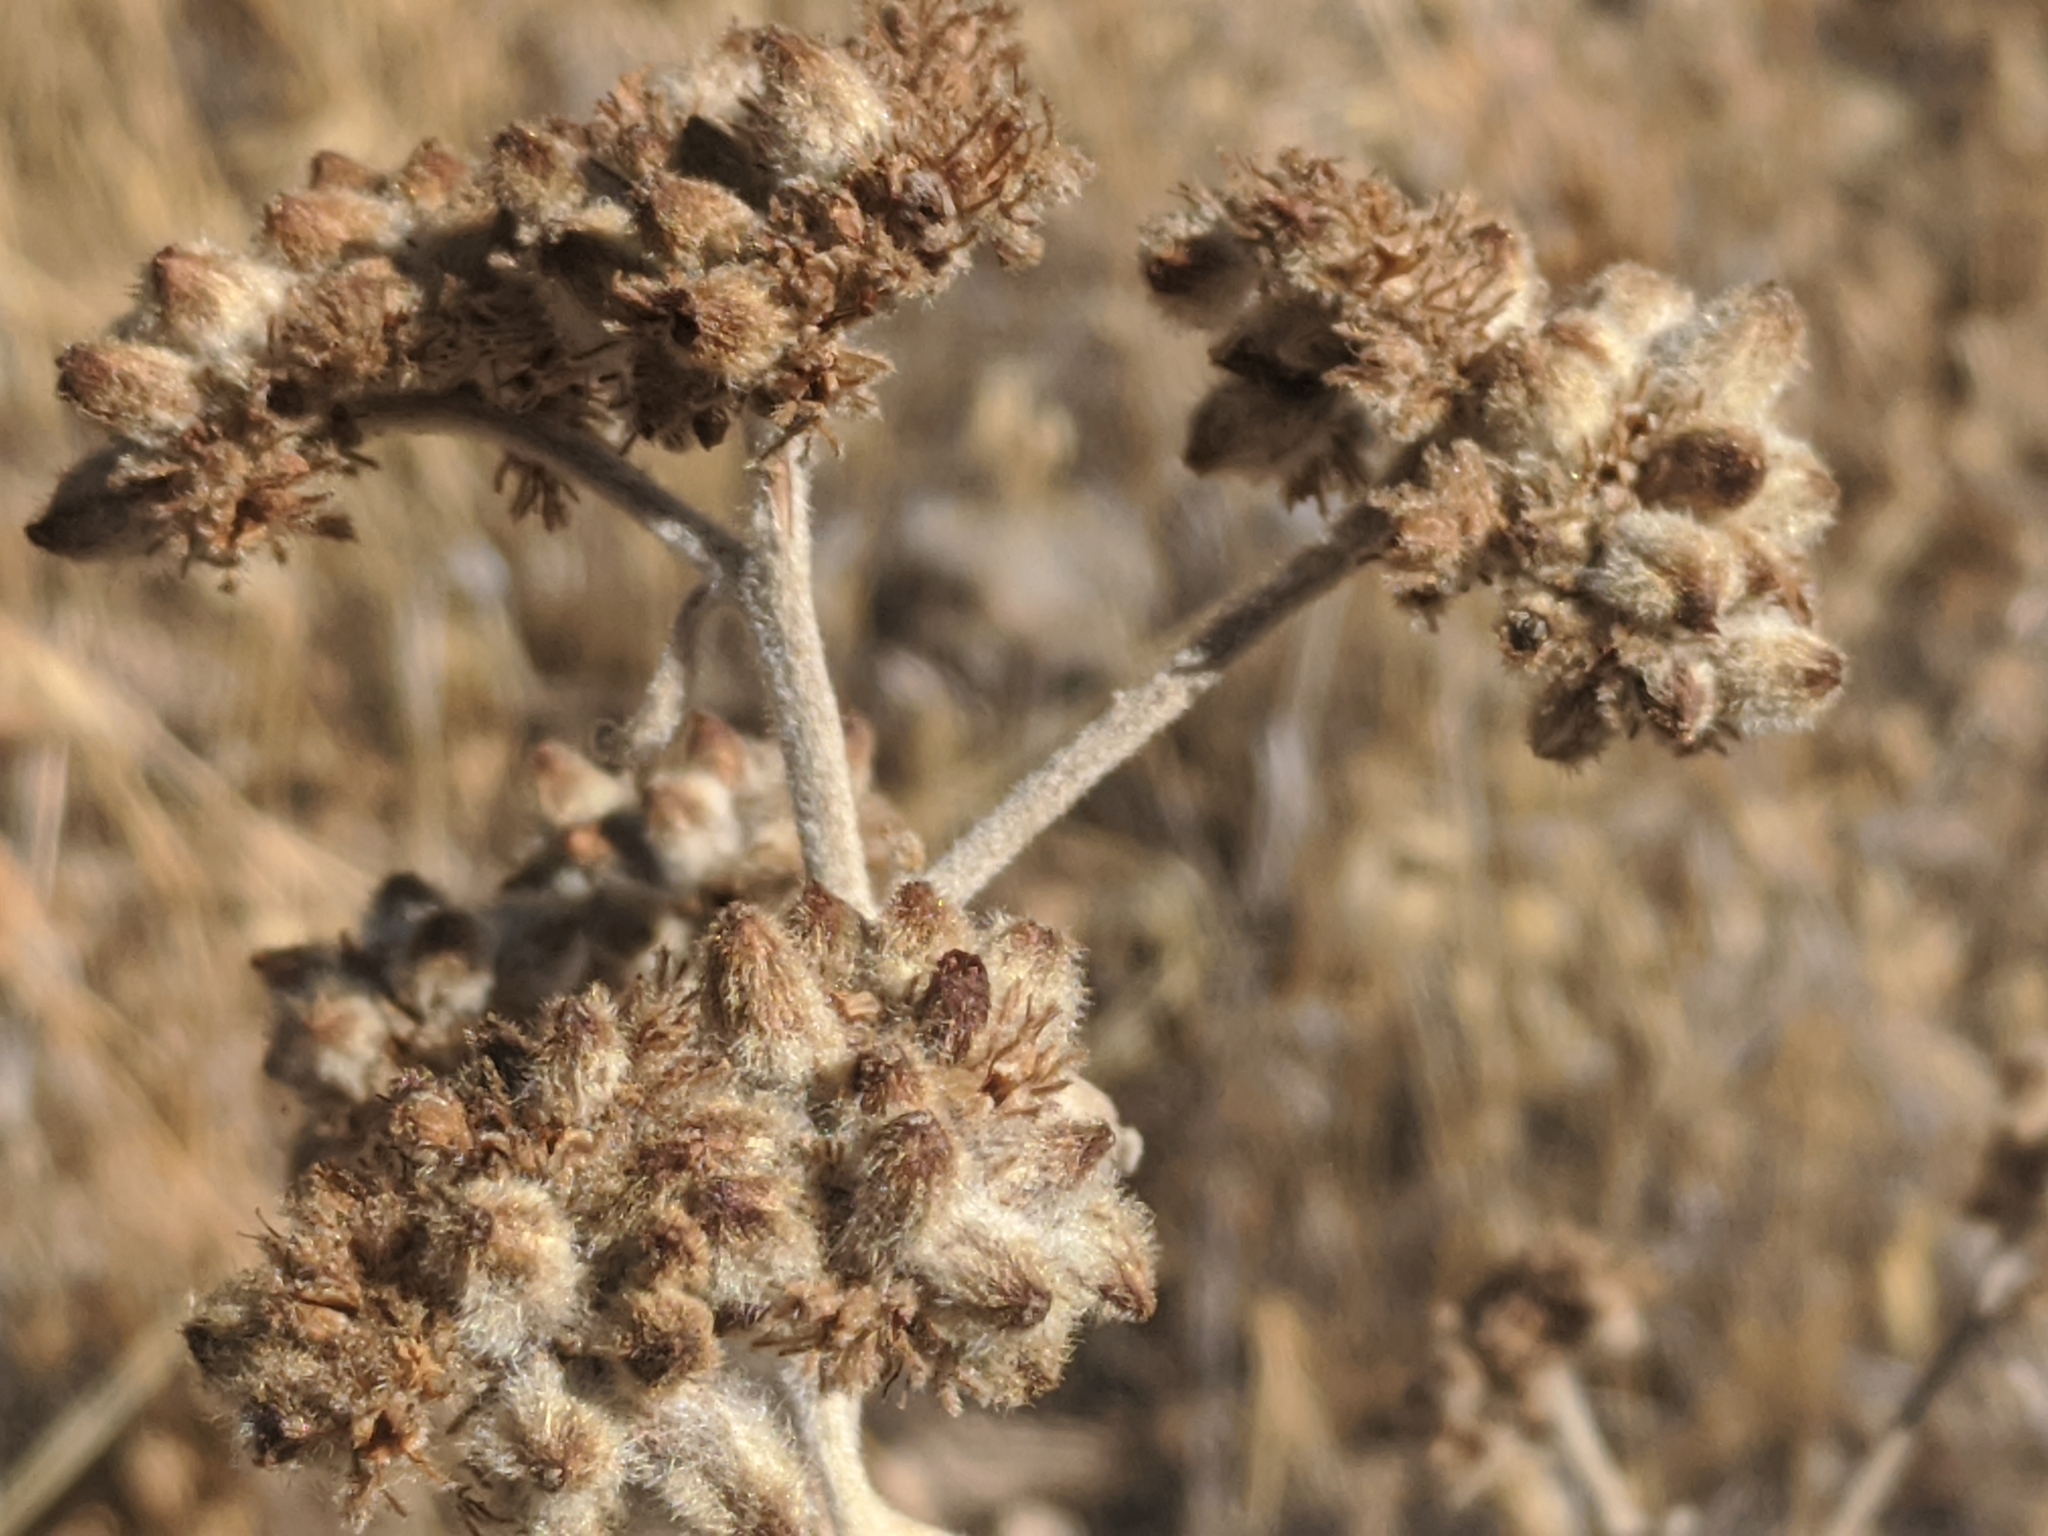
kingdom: Plantae
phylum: Tracheophyta
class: Magnoliopsida
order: Boraginales
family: Namaceae
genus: Eriodictyon
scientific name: Eriodictyon tomentosum
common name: Woolly yerba-santa
